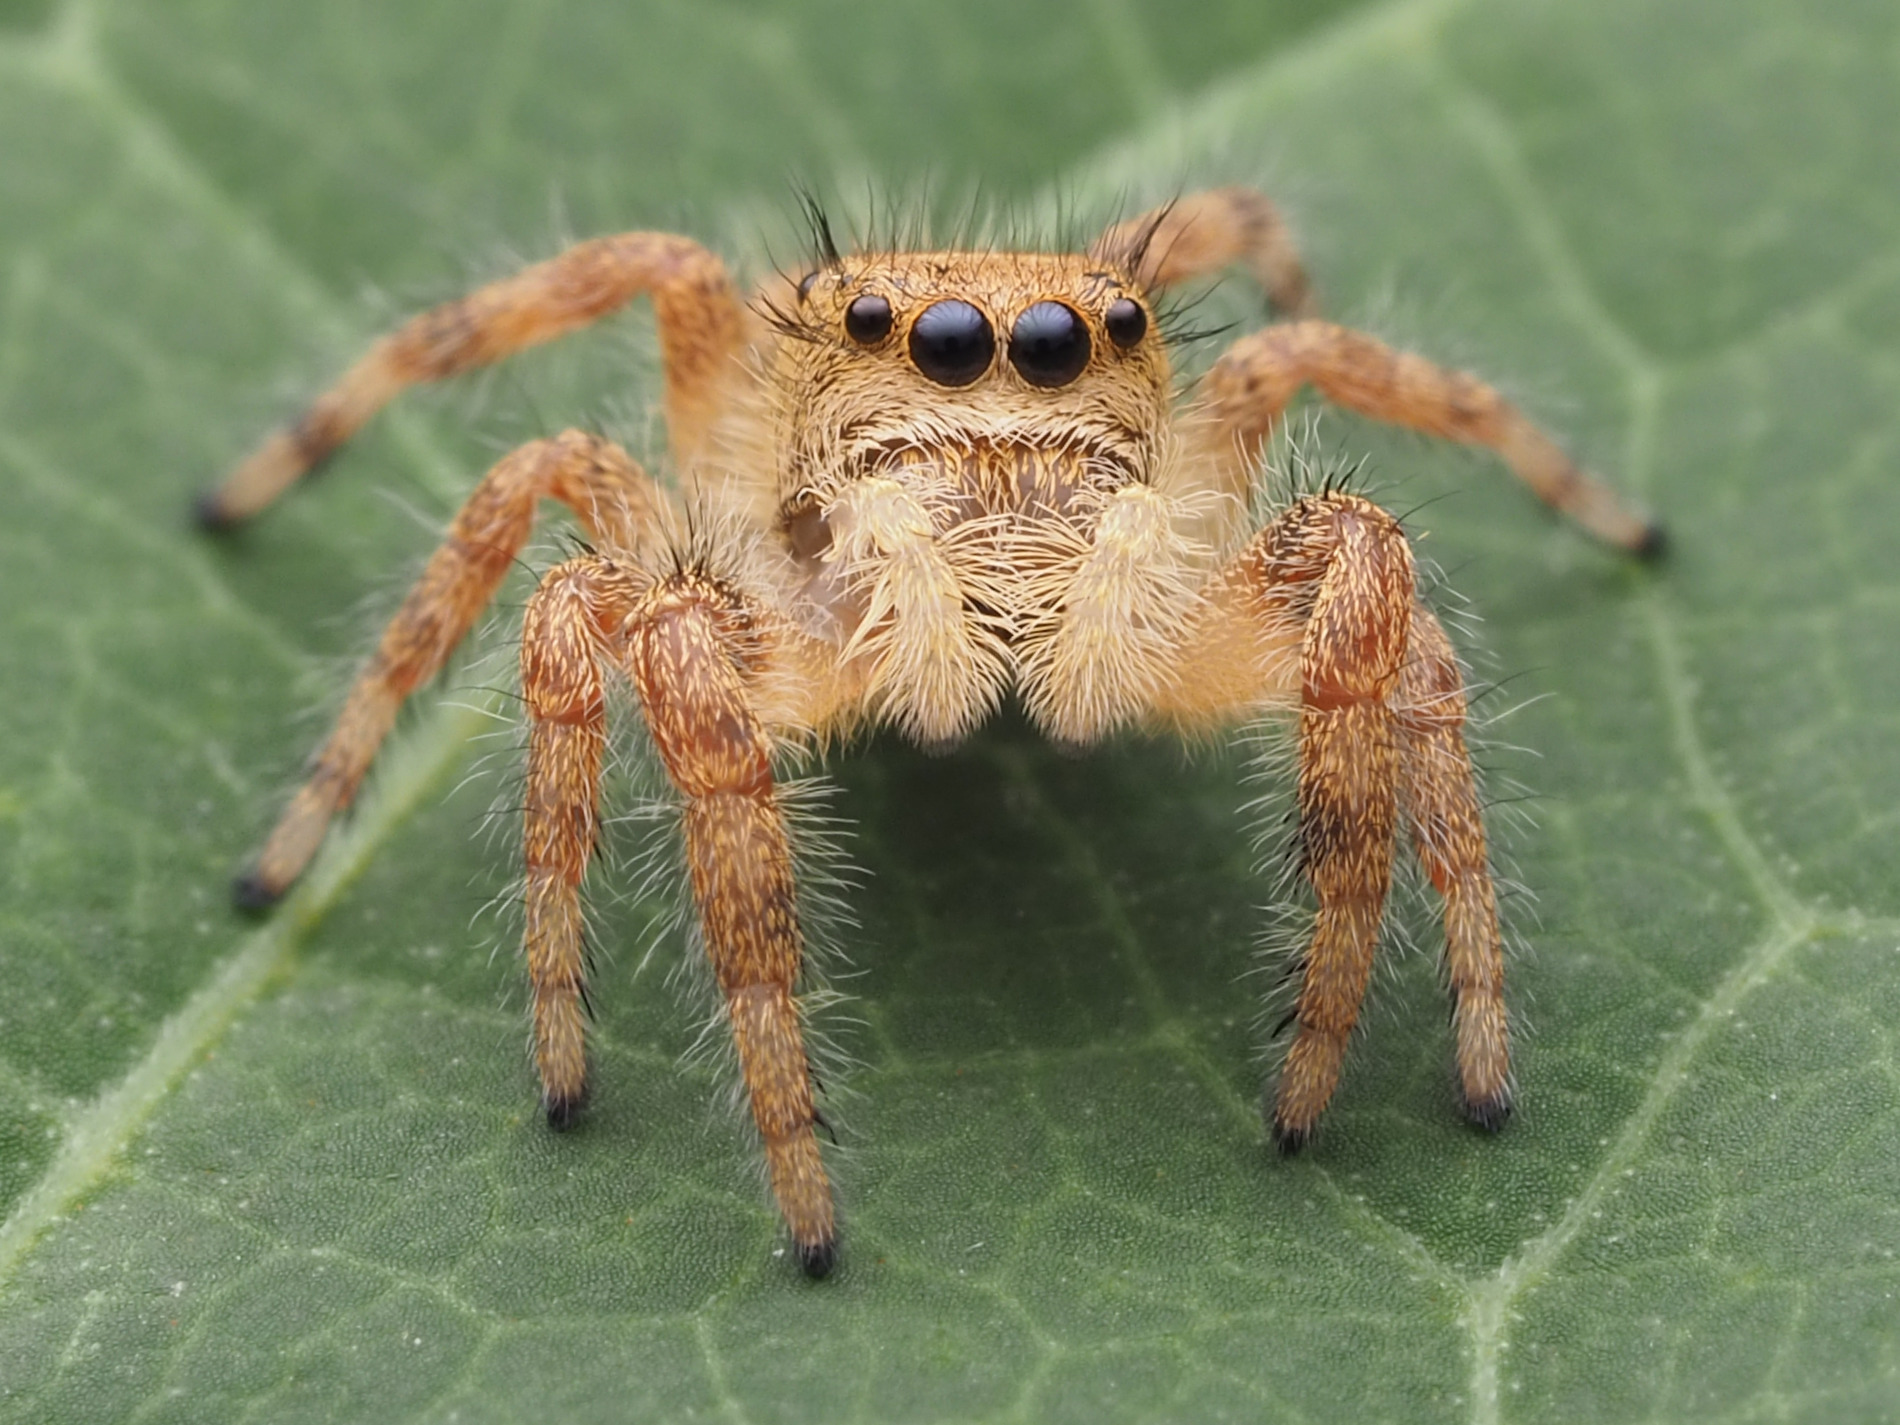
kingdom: Animalia
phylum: Arthropoda
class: Arachnida
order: Araneae
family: Salticidae
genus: Phidippus
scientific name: Phidippus princeps
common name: Grayish jumping spider
